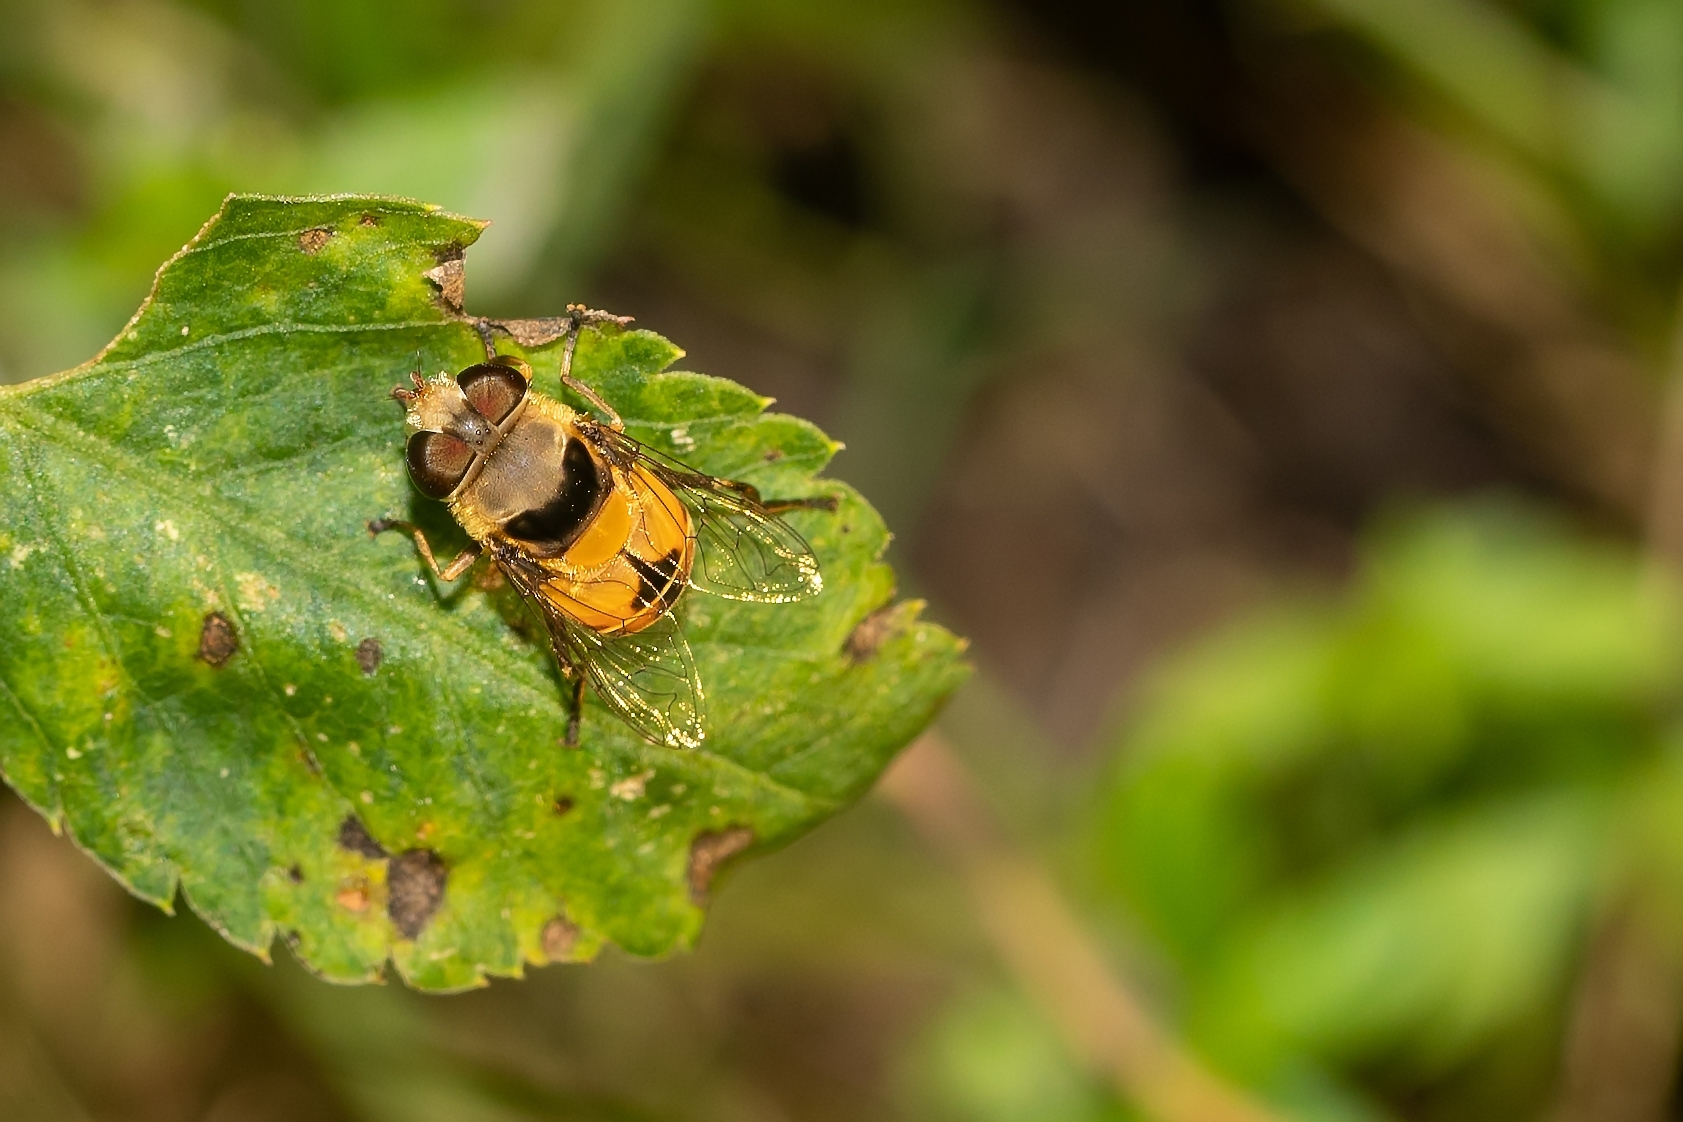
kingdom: Animalia
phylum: Arthropoda
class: Insecta
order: Diptera
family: Syrphidae
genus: Palpada
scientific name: Palpada pusilla
